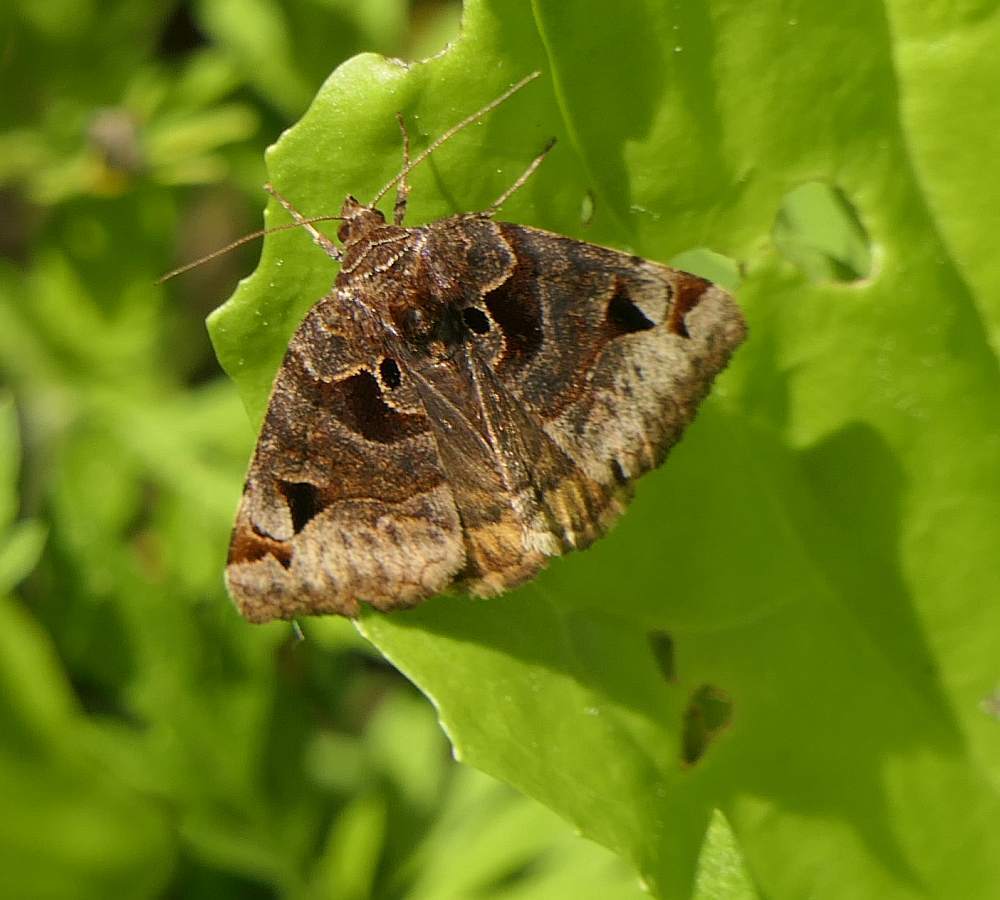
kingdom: Animalia
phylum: Arthropoda
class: Insecta
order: Lepidoptera
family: Erebidae
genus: Euclidia
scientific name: Euclidia cuspidea
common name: Toothed somberwing
